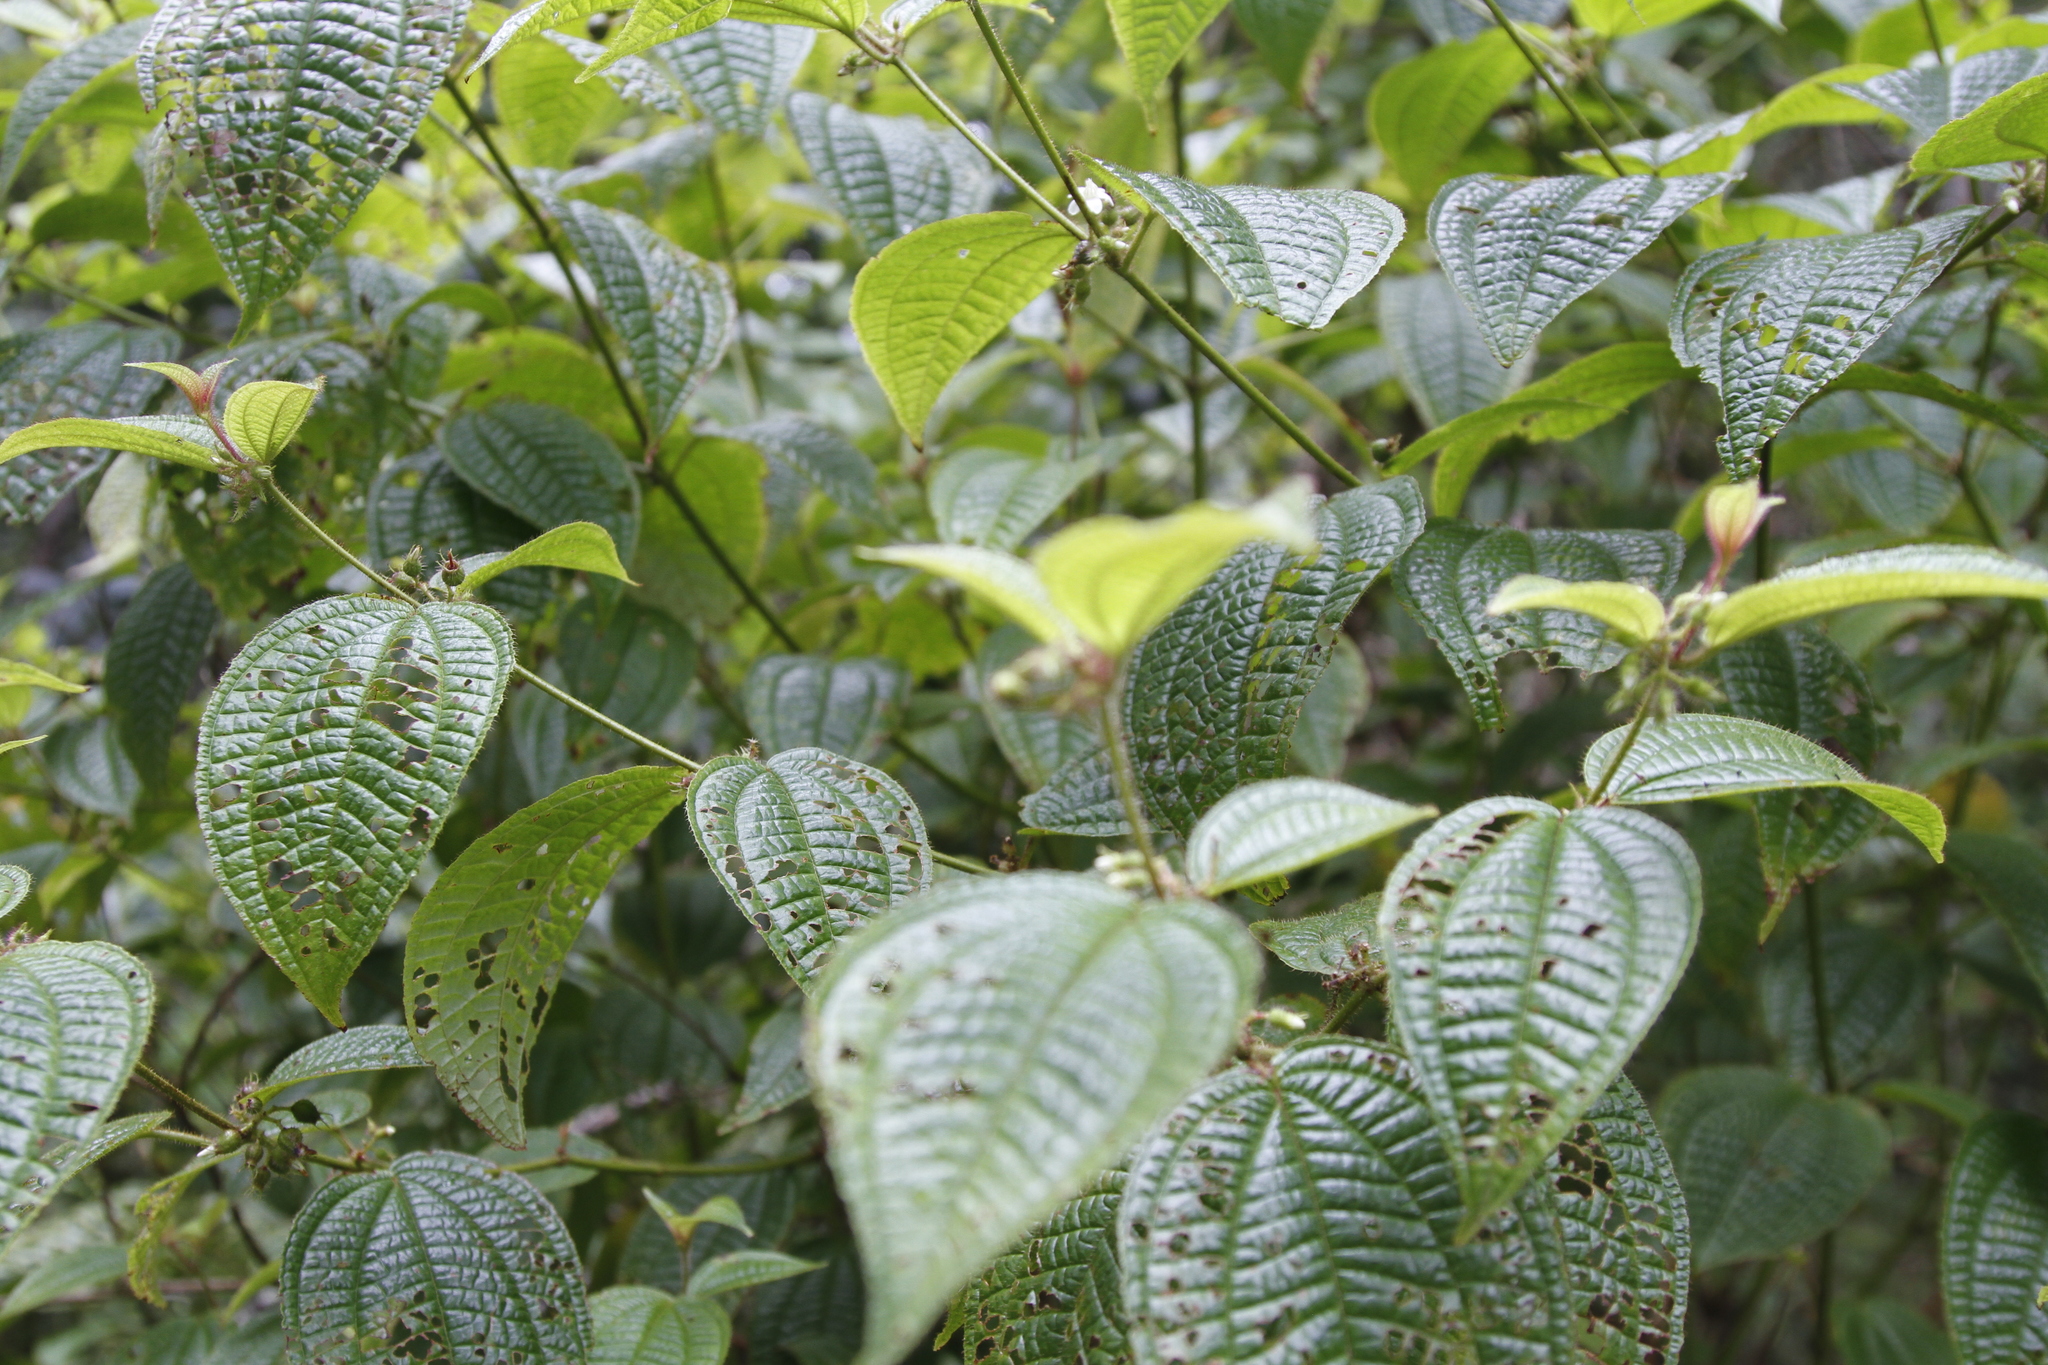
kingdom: Plantae
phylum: Tracheophyta
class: Magnoliopsida
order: Myrtales
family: Melastomataceae
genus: Miconia
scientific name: Miconia crenata
